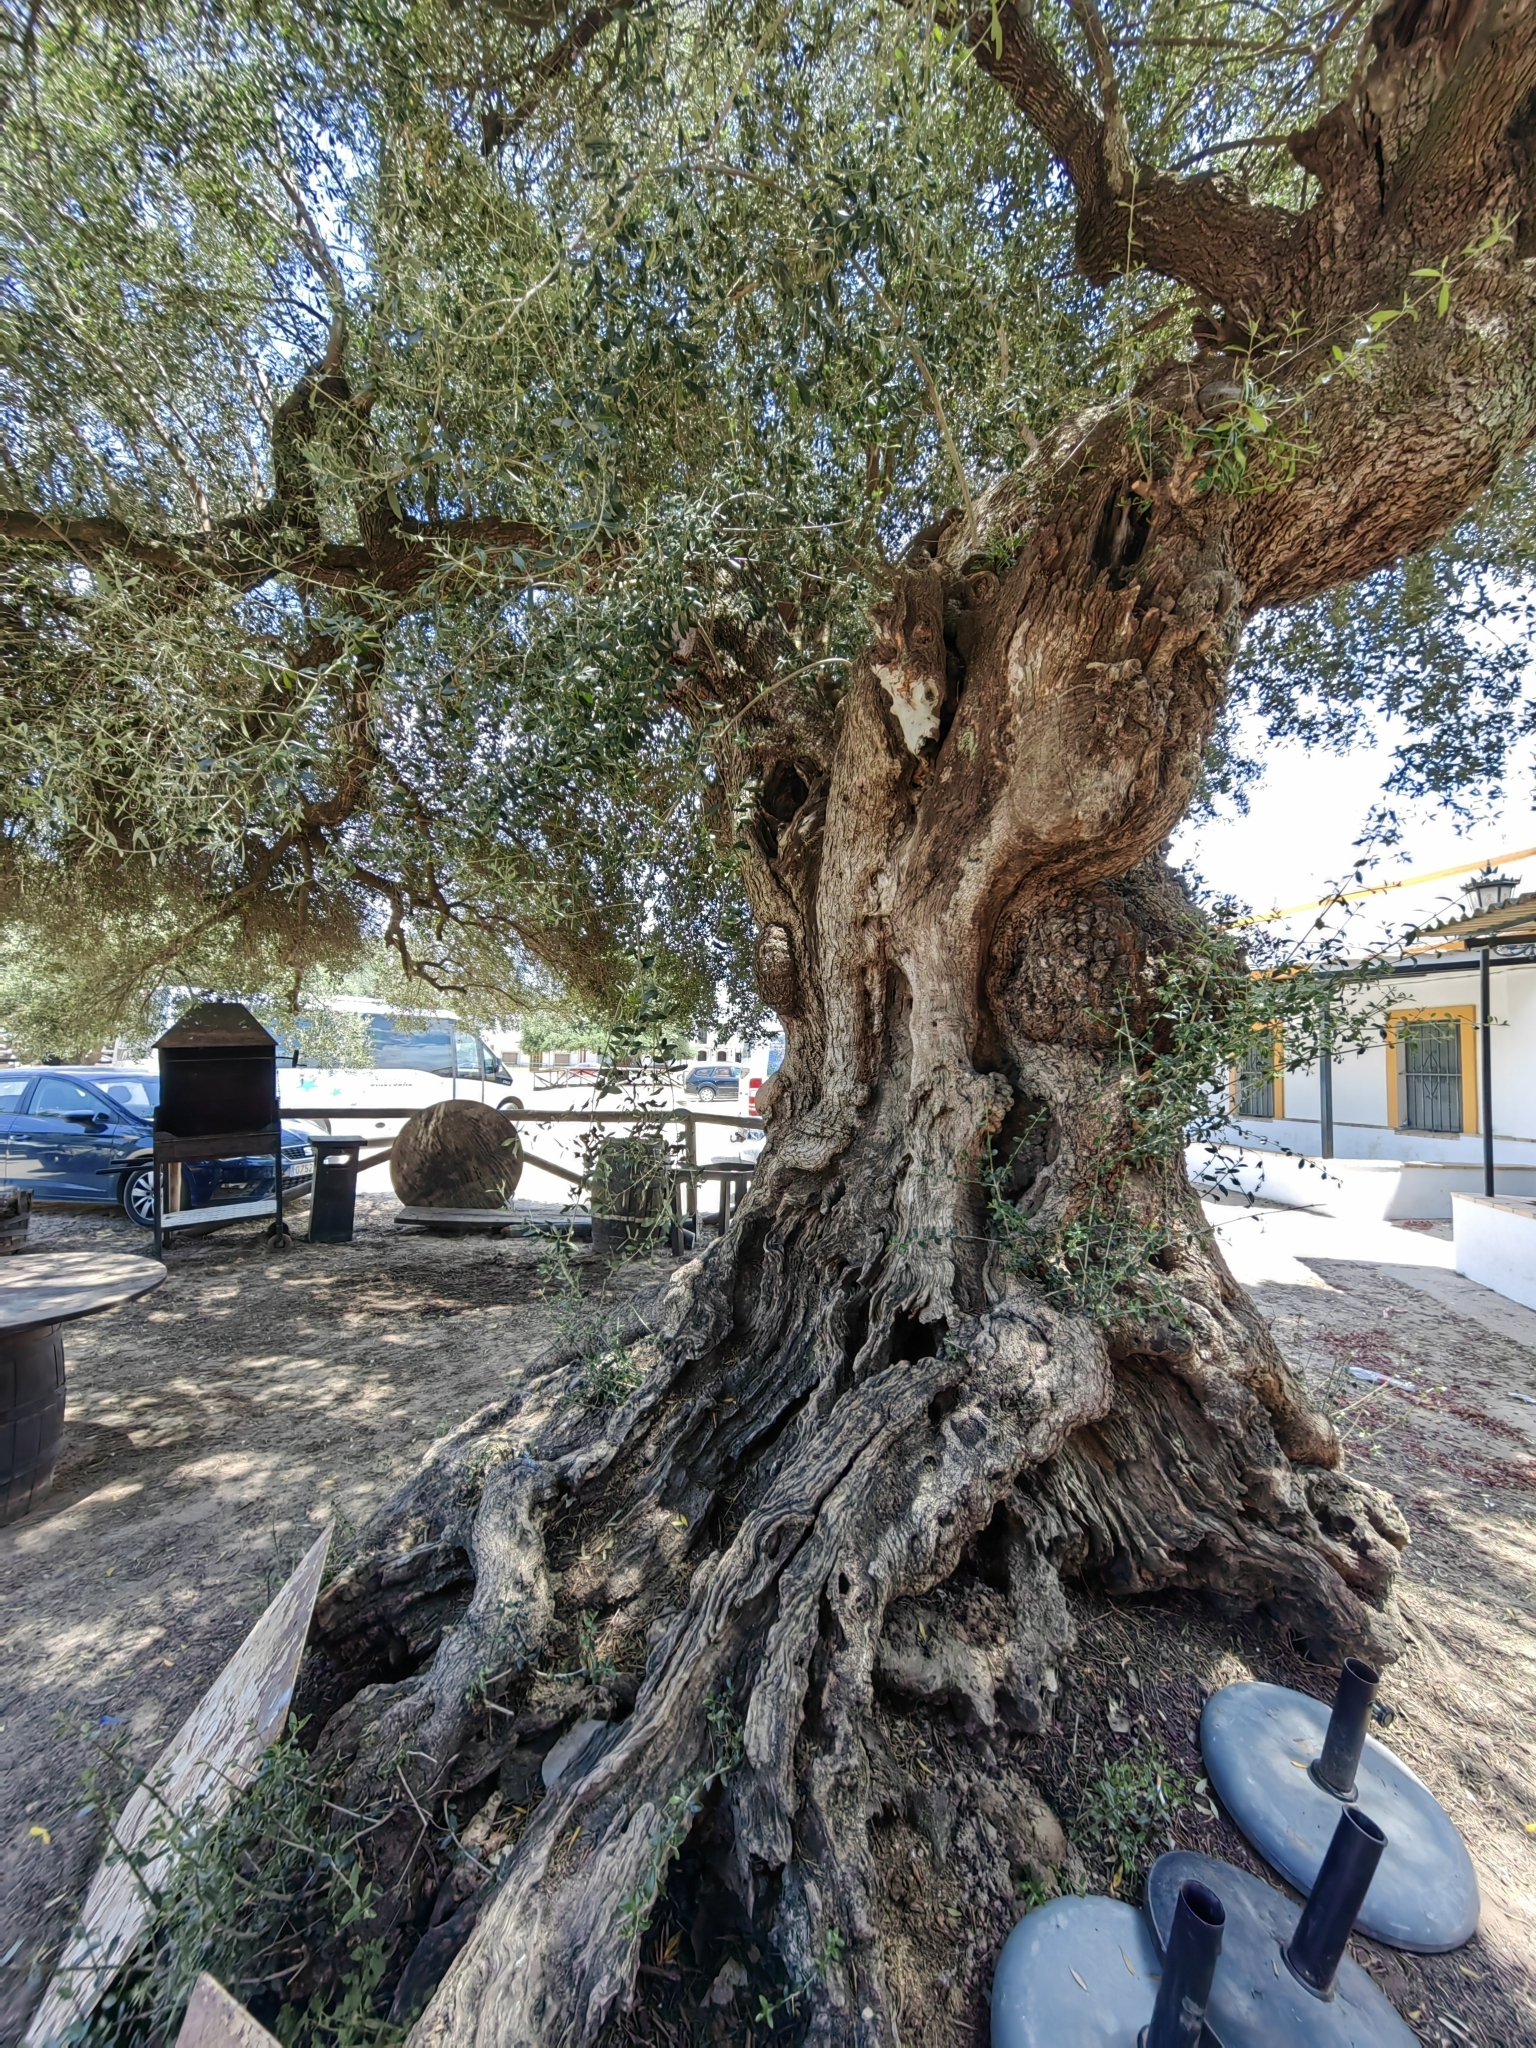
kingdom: Plantae
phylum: Tracheophyta
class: Magnoliopsida
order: Lamiales
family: Oleaceae
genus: Olea
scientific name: Olea europaea
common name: Olive
